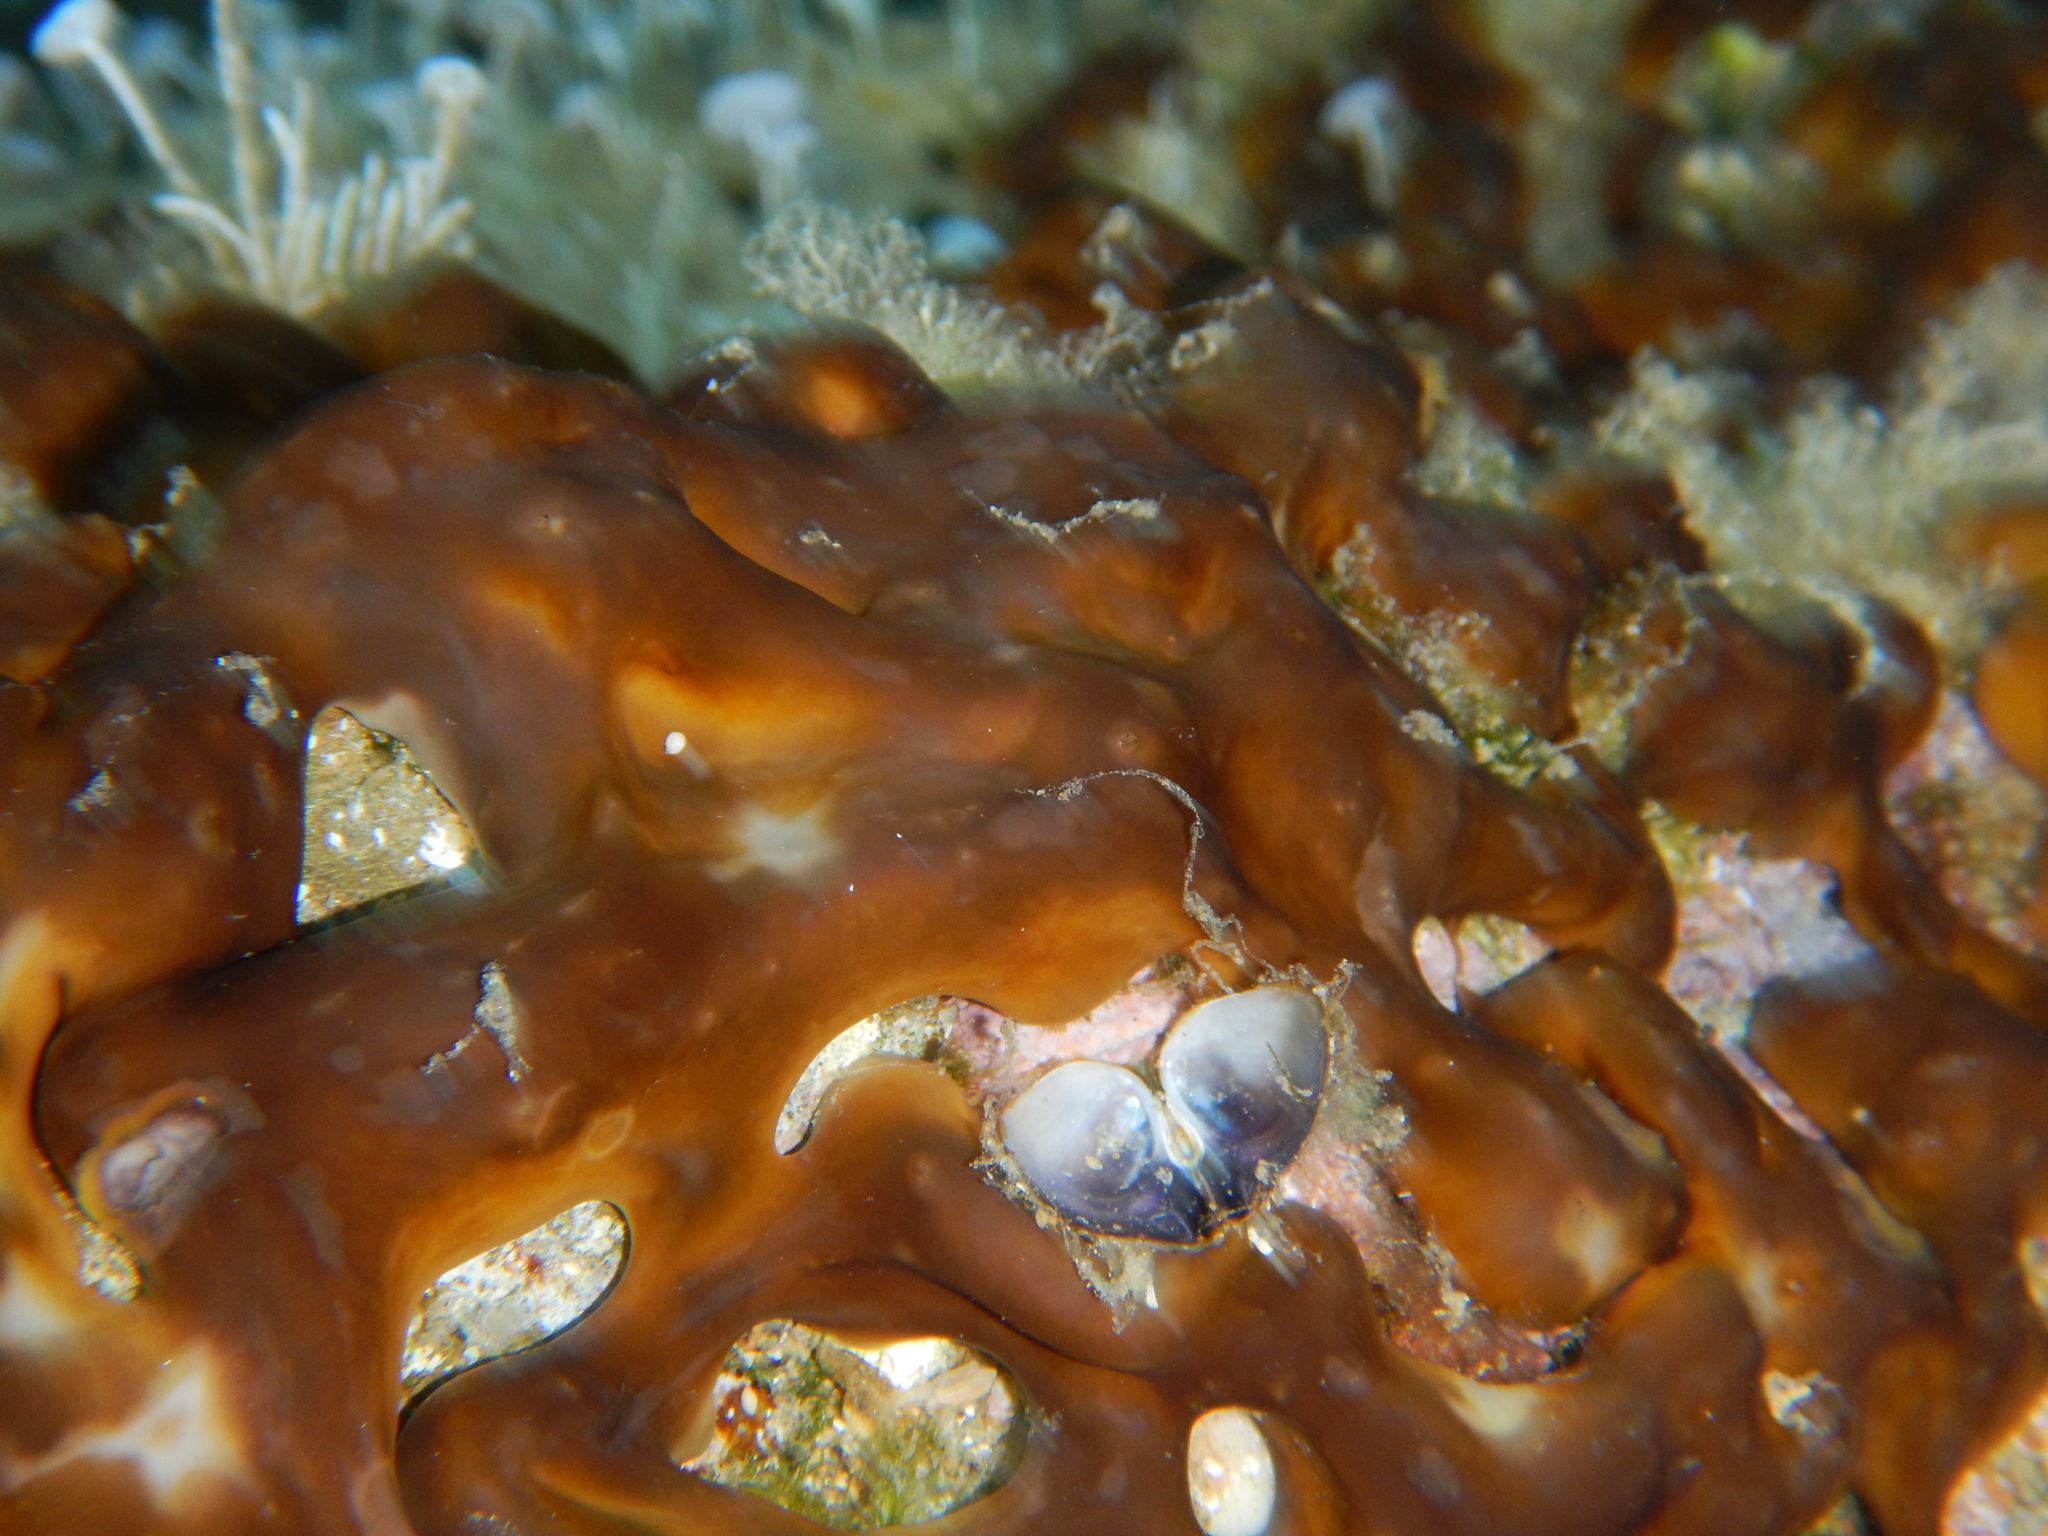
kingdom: Animalia
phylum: Porifera
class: Demospongiae
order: Chondrillida
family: Chondrillidae
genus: Chondrilla
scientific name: Chondrilla nucula
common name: Chicken liver sponge
